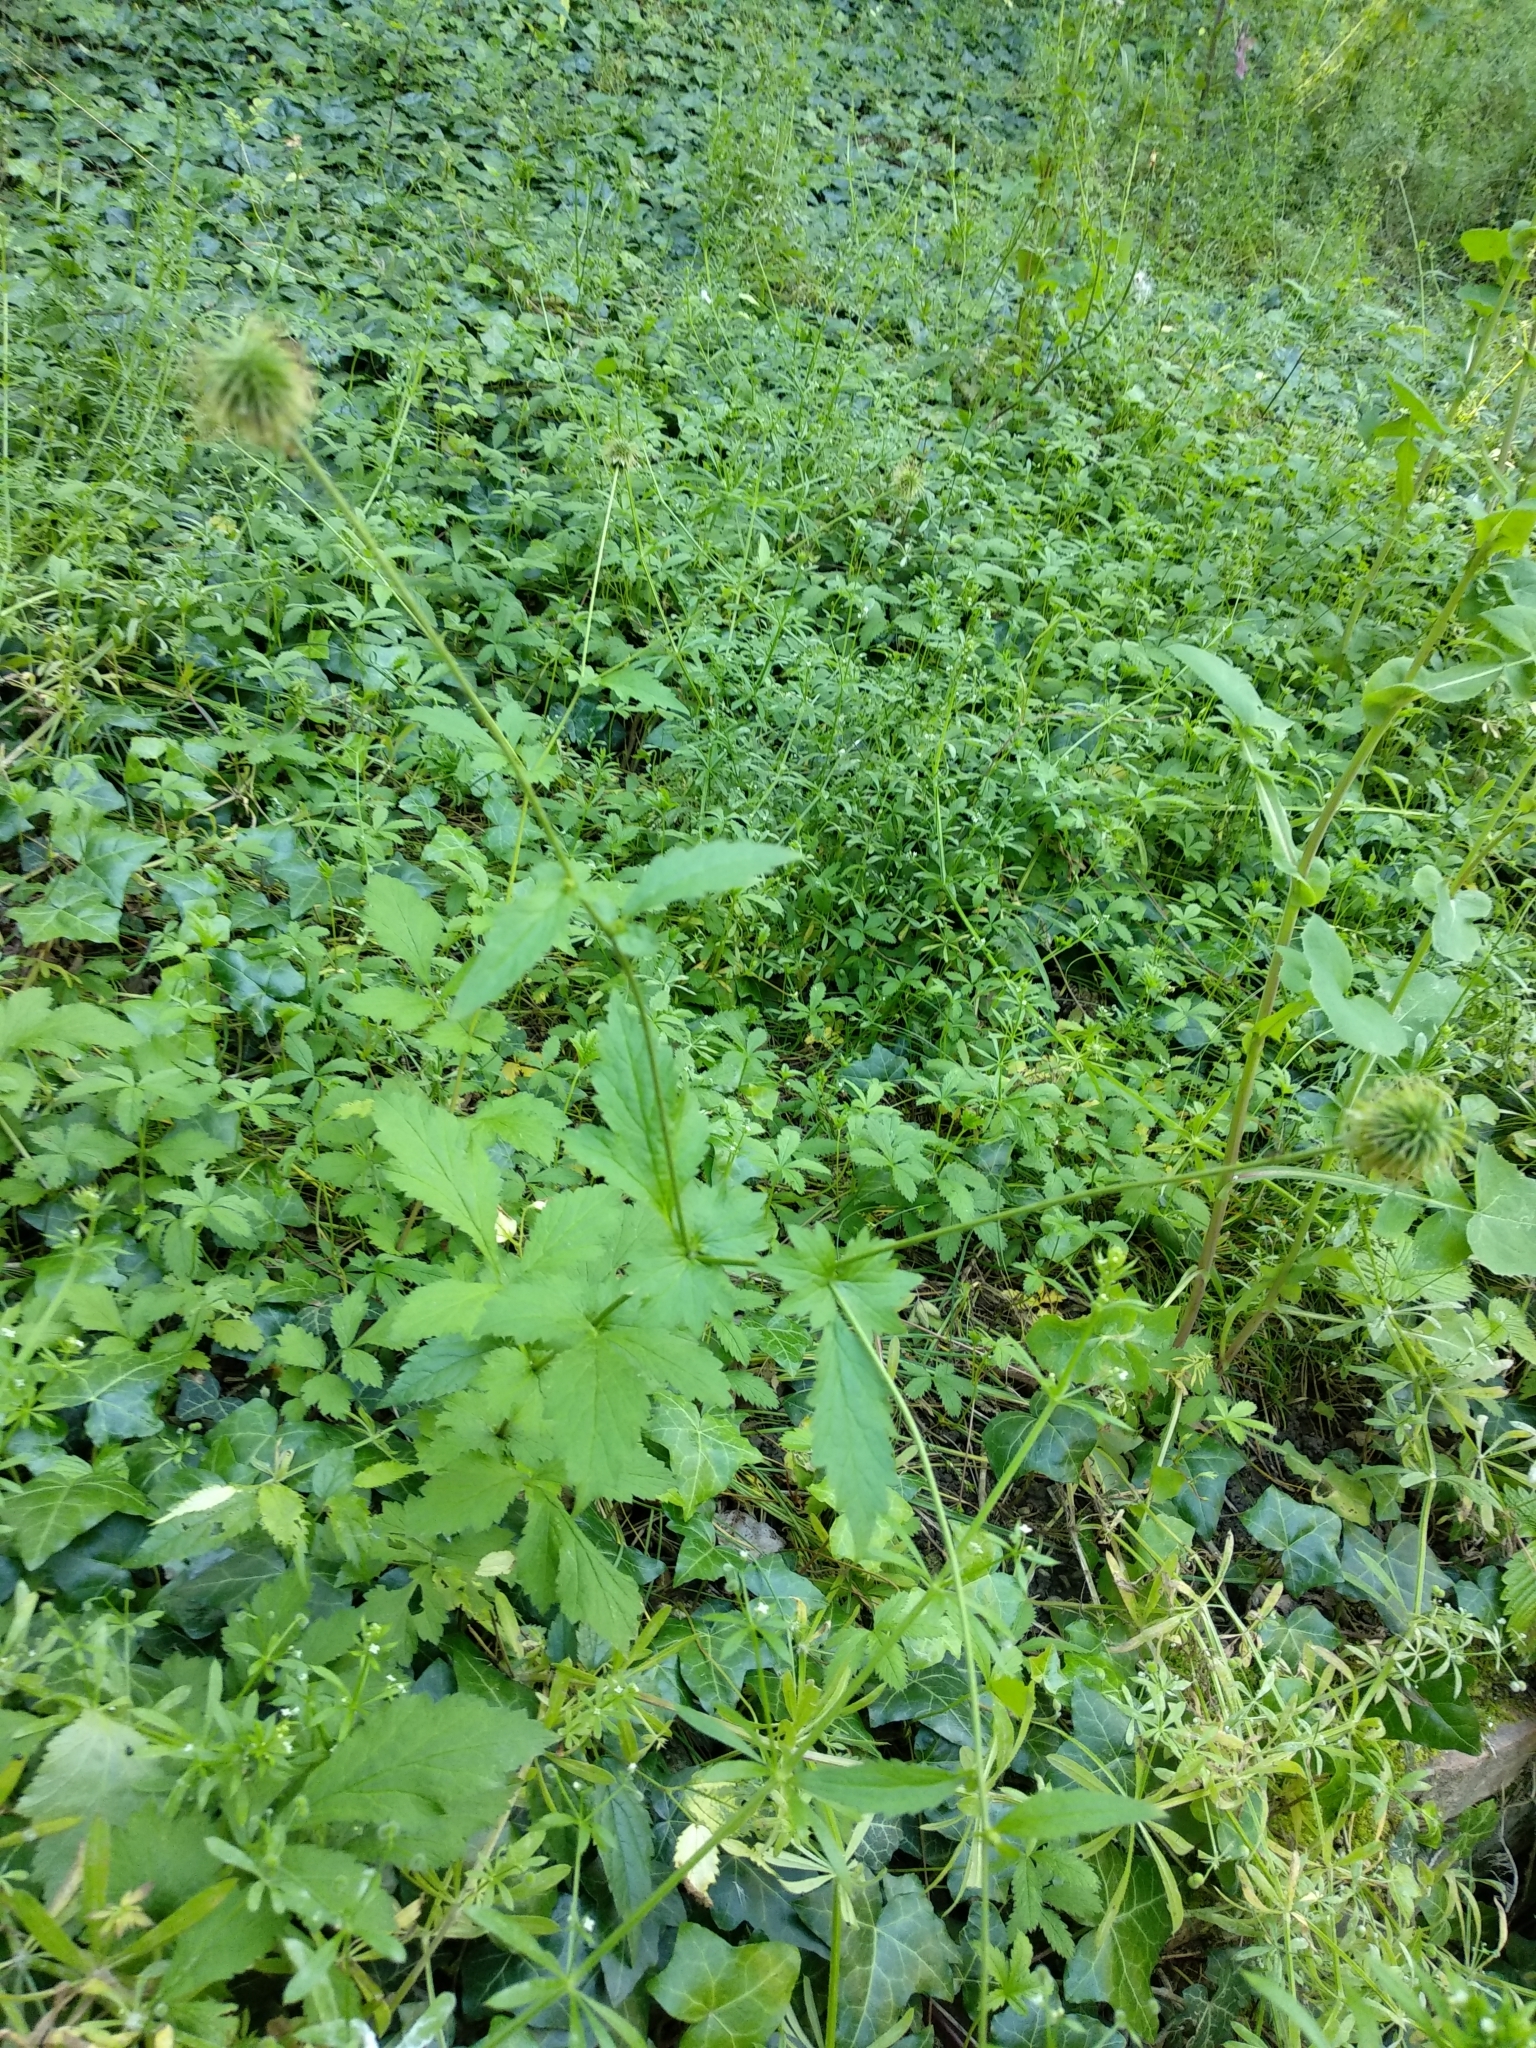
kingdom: Plantae
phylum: Tracheophyta
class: Magnoliopsida
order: Rosales
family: Rosaceae
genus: Geum
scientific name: Geum urbanum
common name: Wood avens
